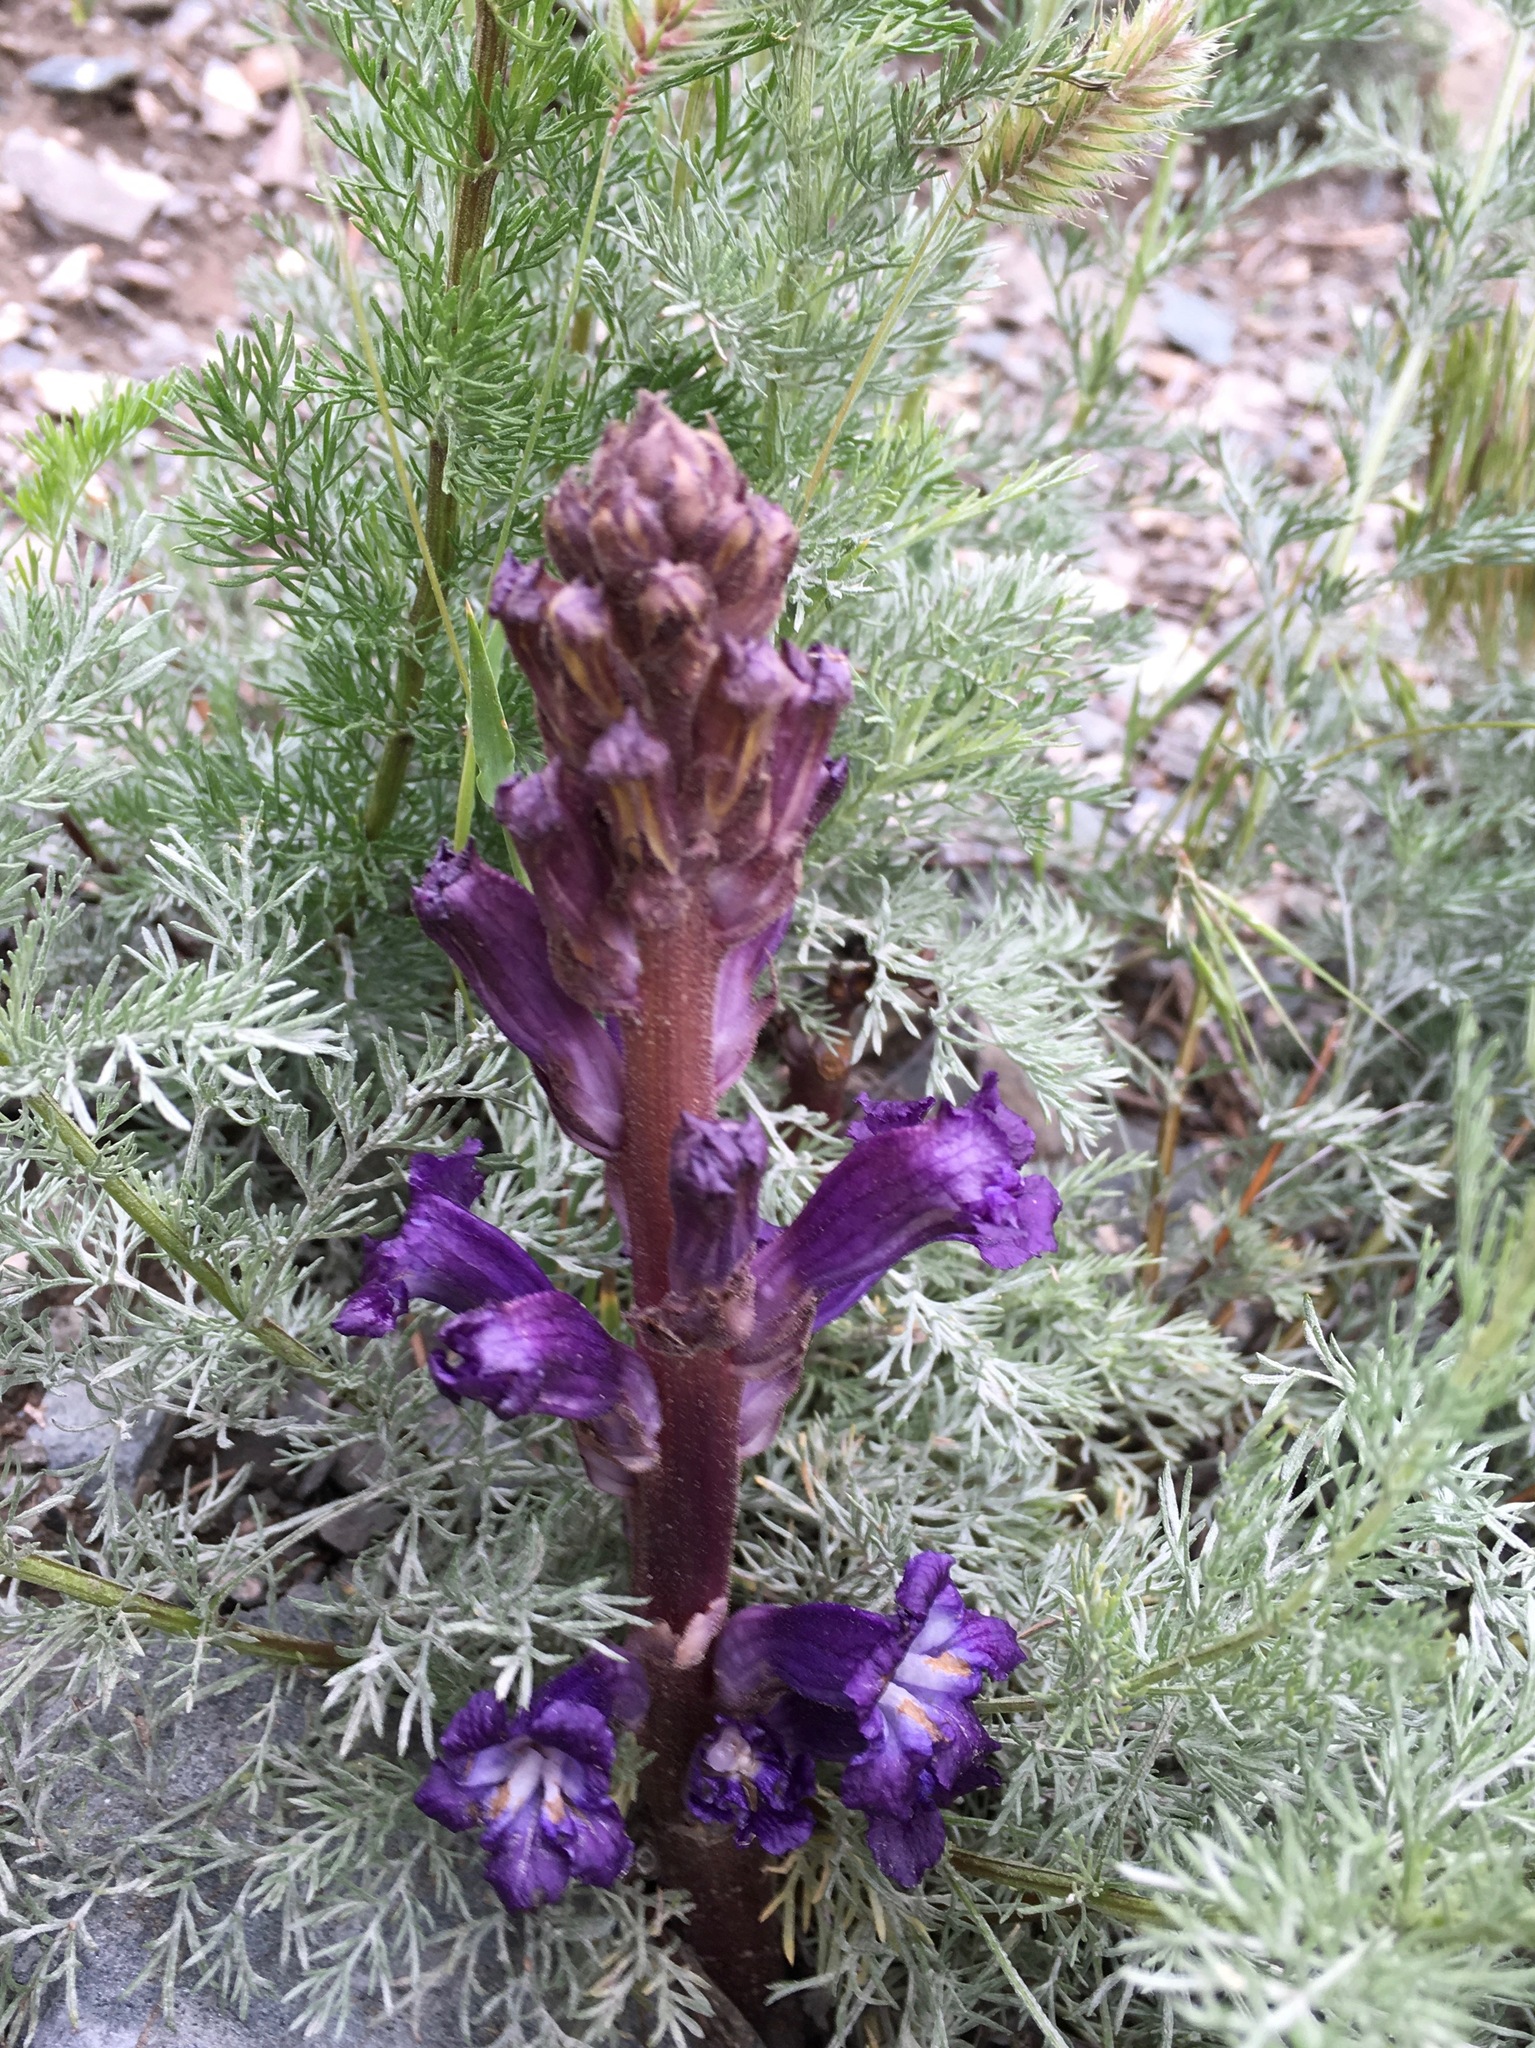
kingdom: Plantae
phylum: Tracheophyta
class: Magnoliopsida
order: Lamiales
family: Orobanchaceae
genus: Orobanche
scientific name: Orobanche amoena
